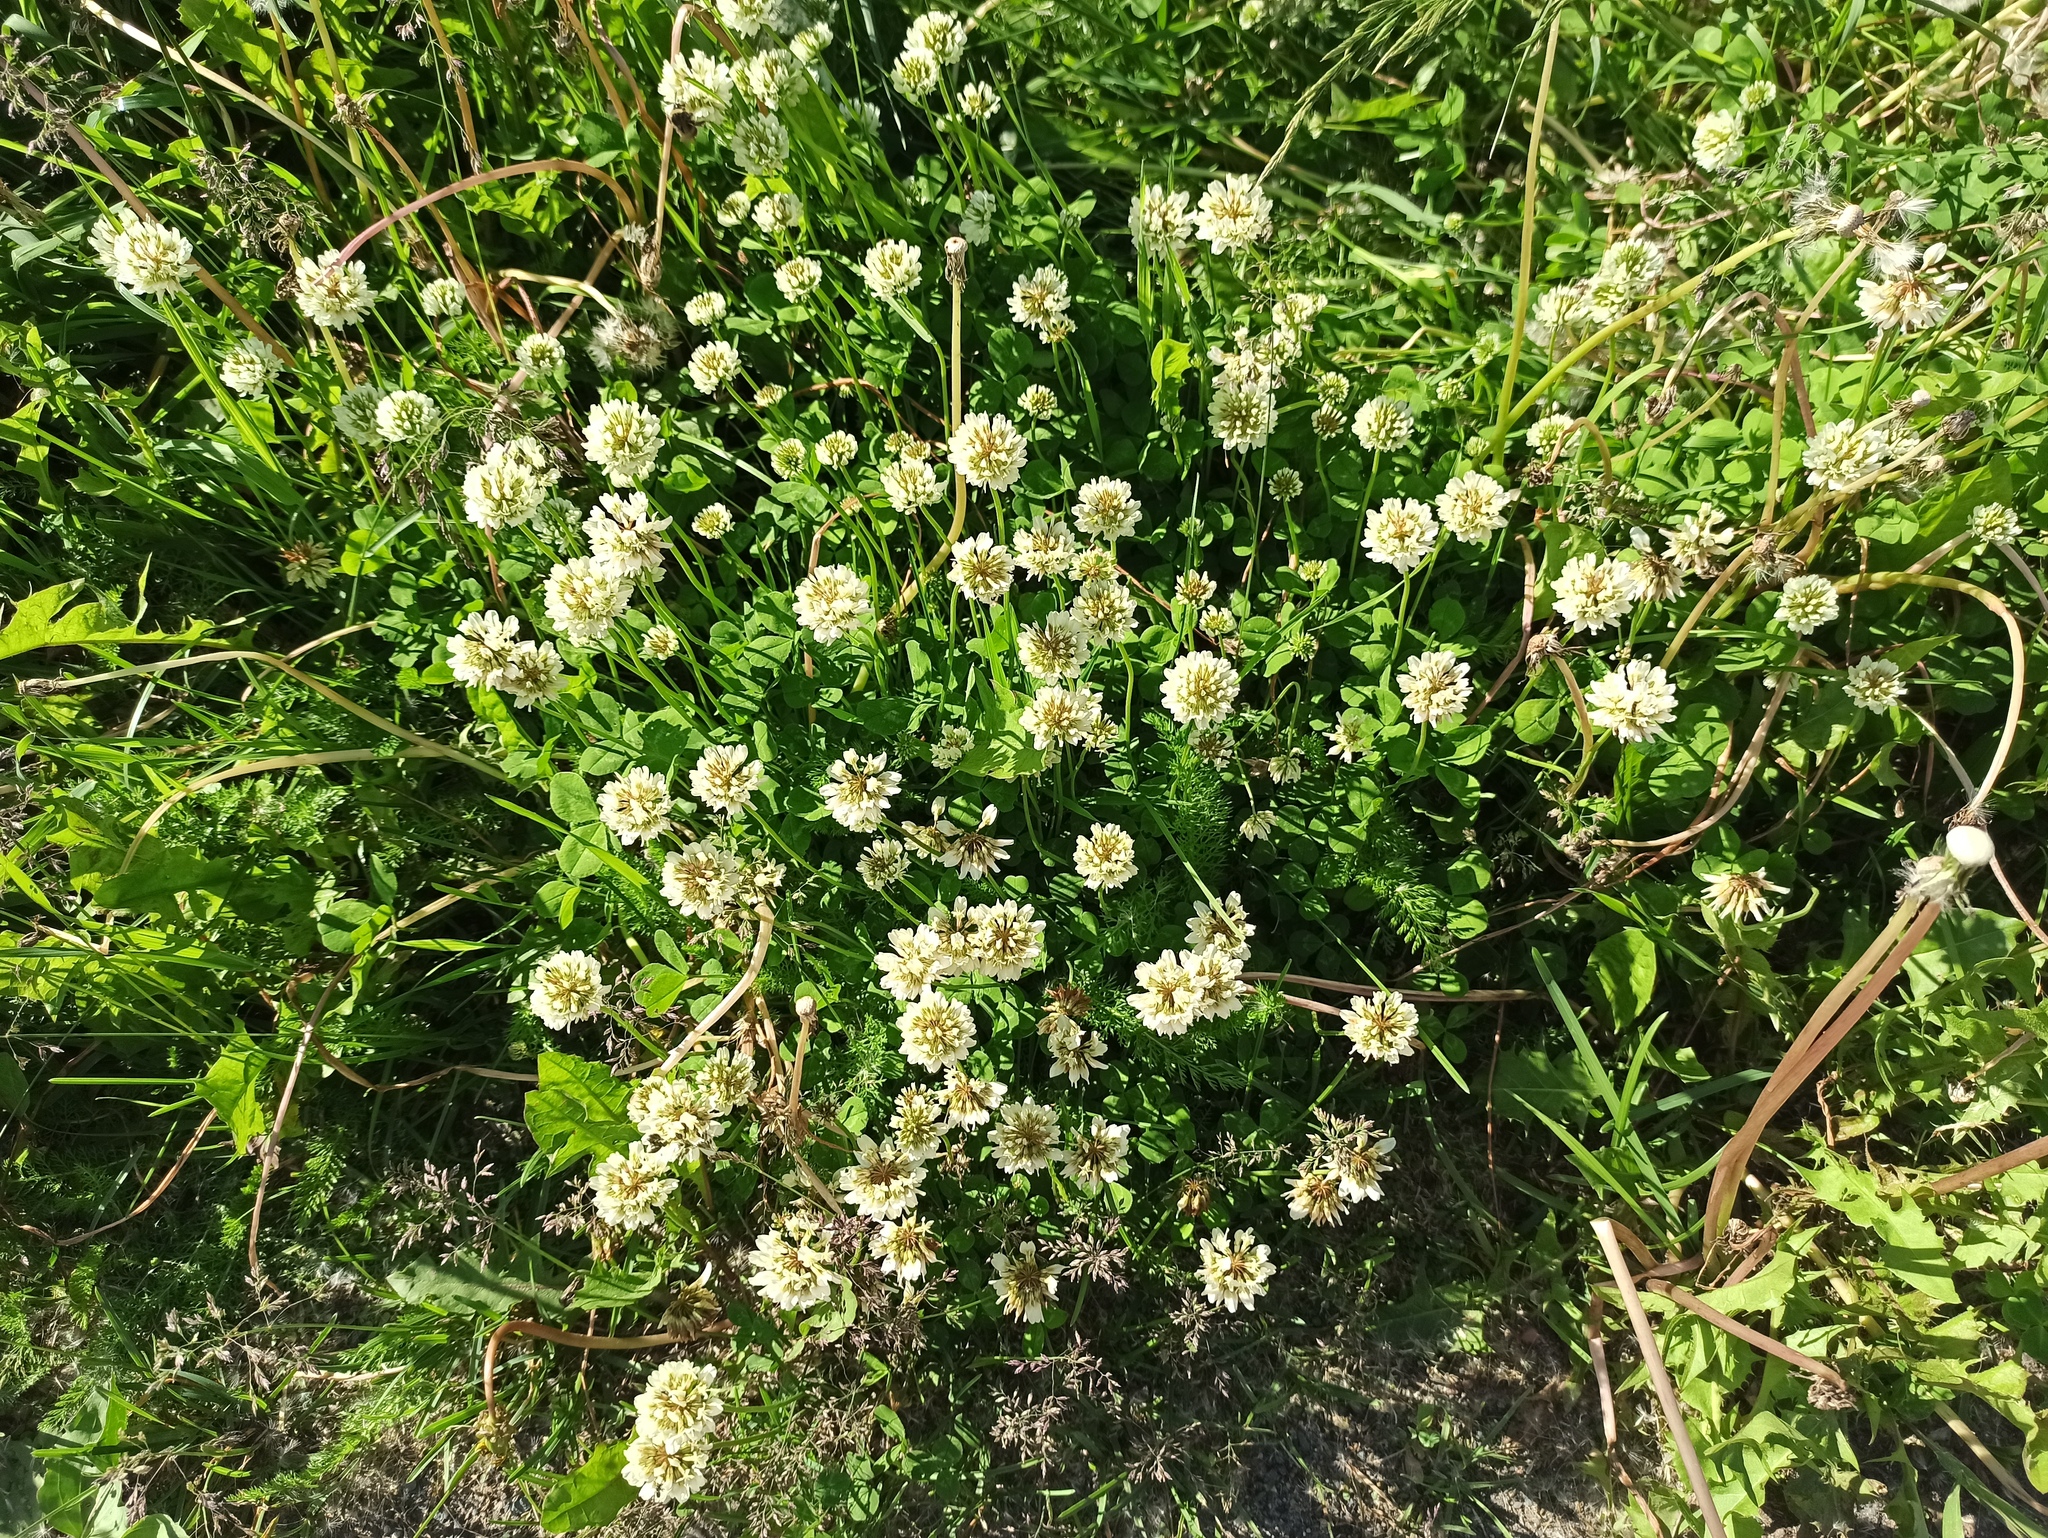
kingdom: Plantae
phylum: Tracheophyta
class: Magnoliopsida
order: Fabales
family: Fabaceae
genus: Trifolium
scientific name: Trifolium repens
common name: White clover
